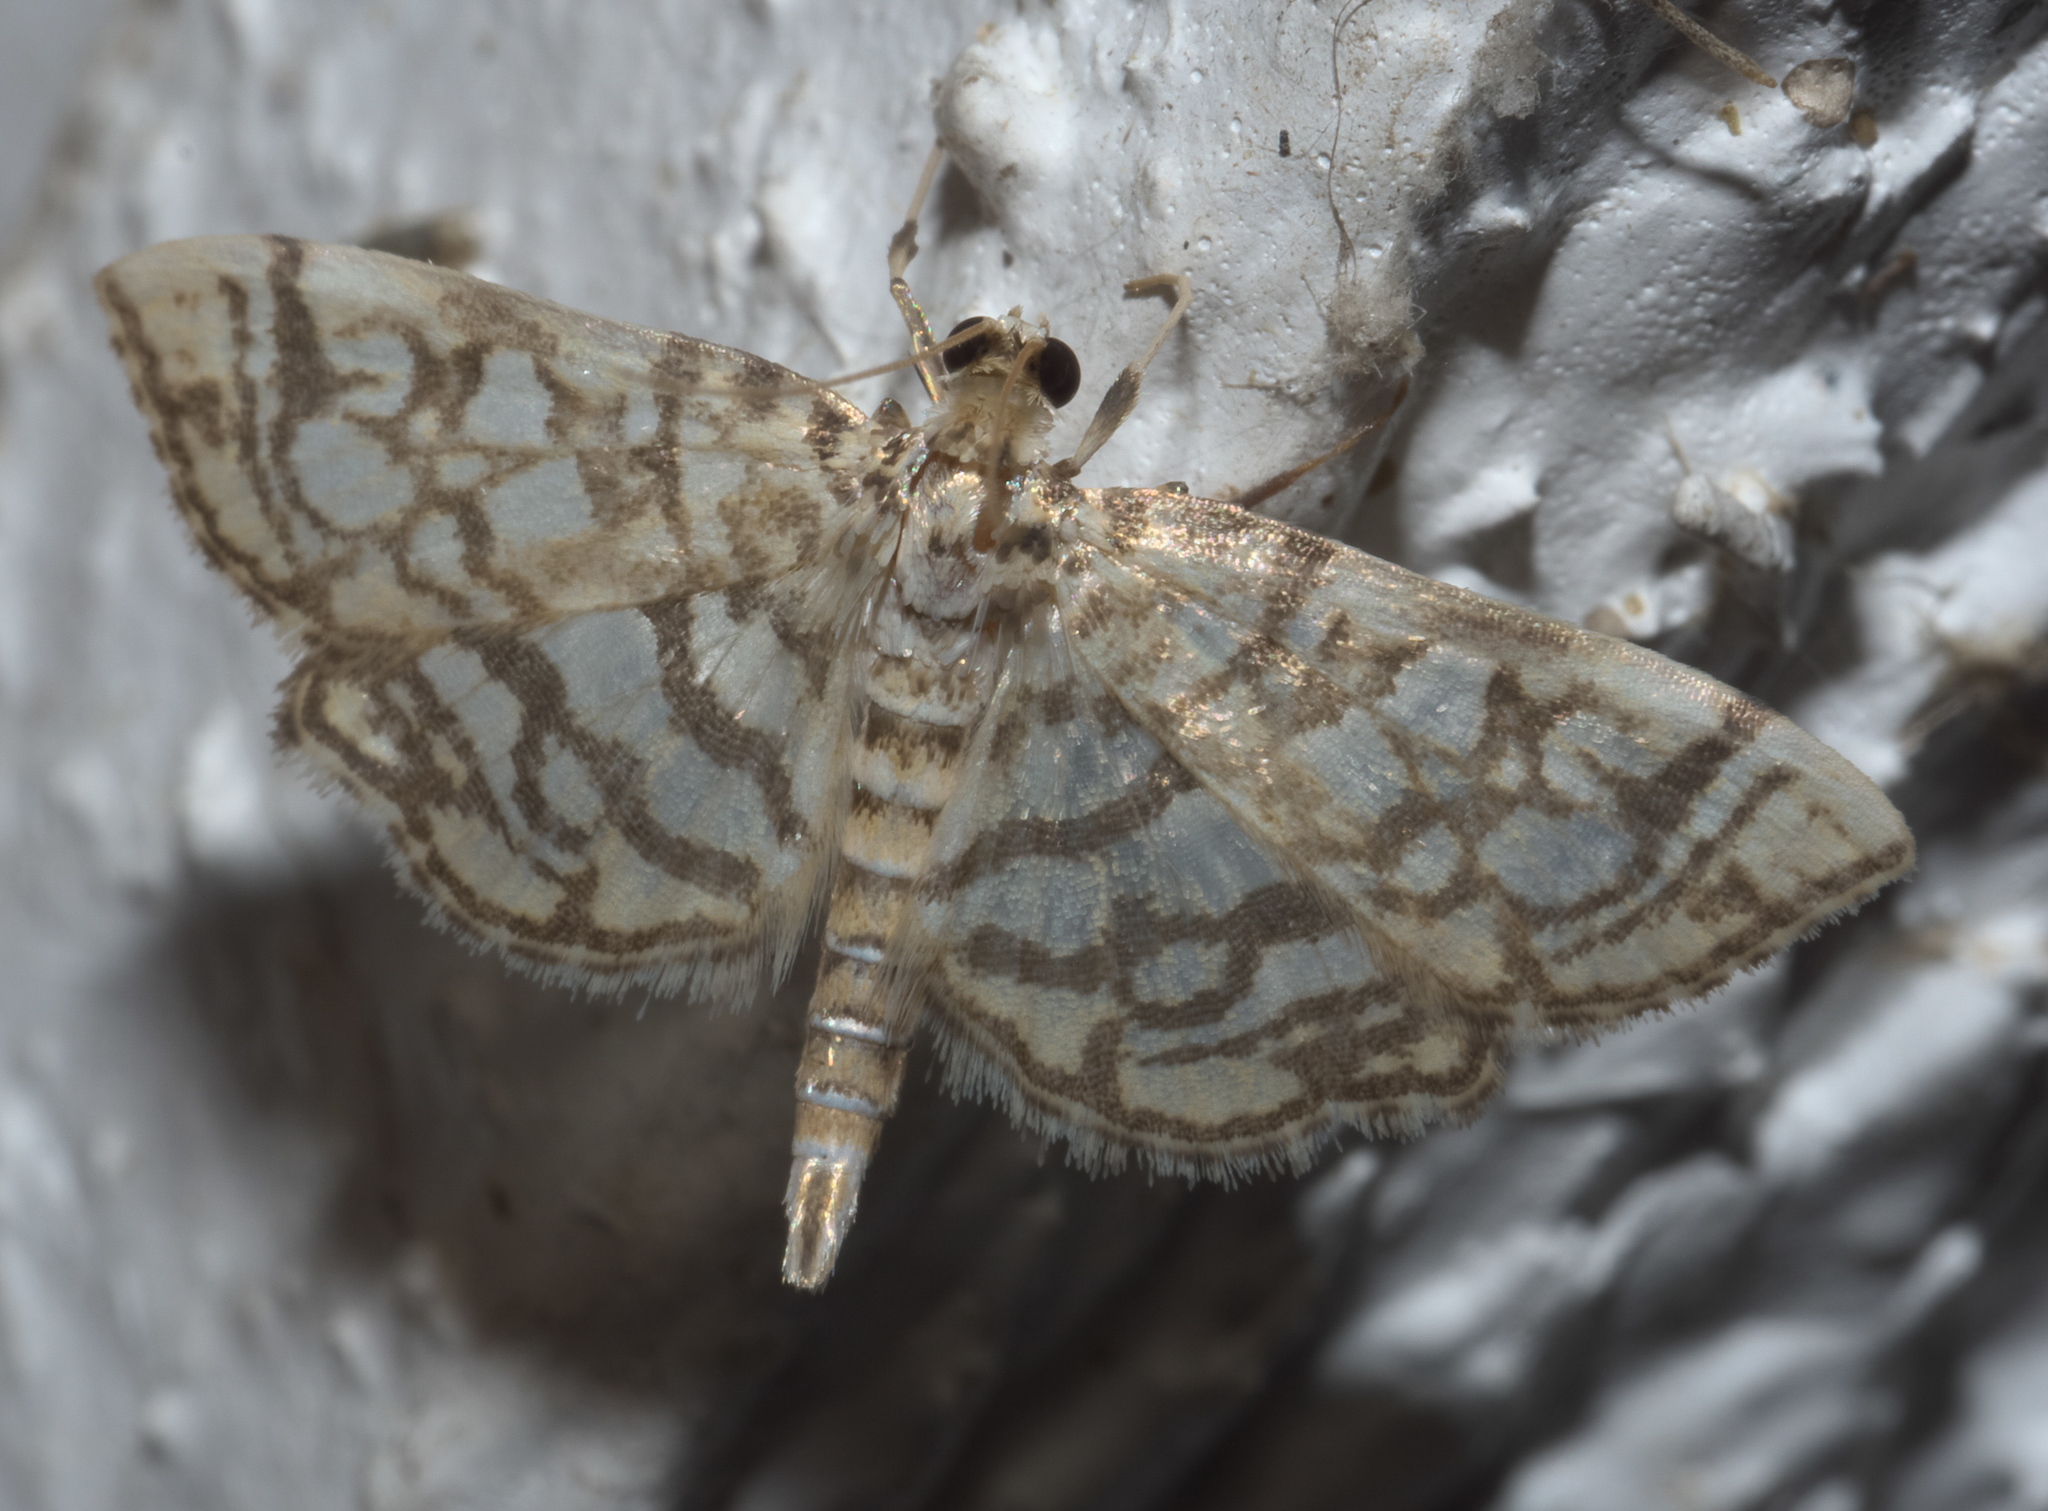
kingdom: Animalia
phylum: Arthropoda
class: Insecta
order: Lepidoptera
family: Crambidae
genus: Lygropia
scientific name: Lygropia rivulalis
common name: Bog lygropia moth
